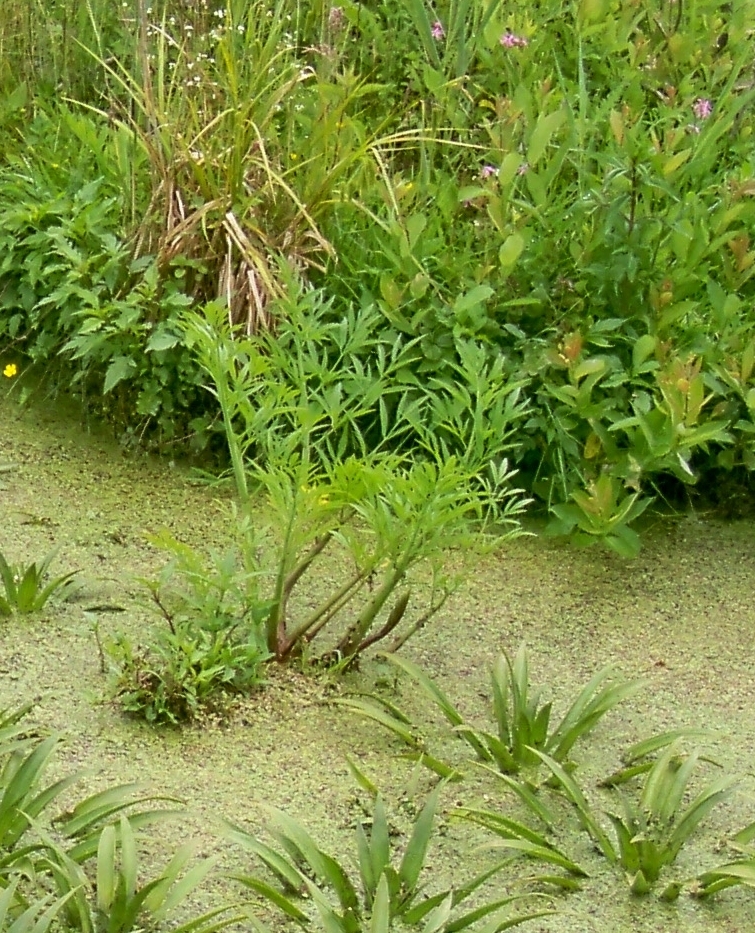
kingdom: Plantae
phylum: Tracheophyta
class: Magnoliopsida
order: Apiales
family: Apiaceae
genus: Cicuta
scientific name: Cicuta virosa
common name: Cowbane
